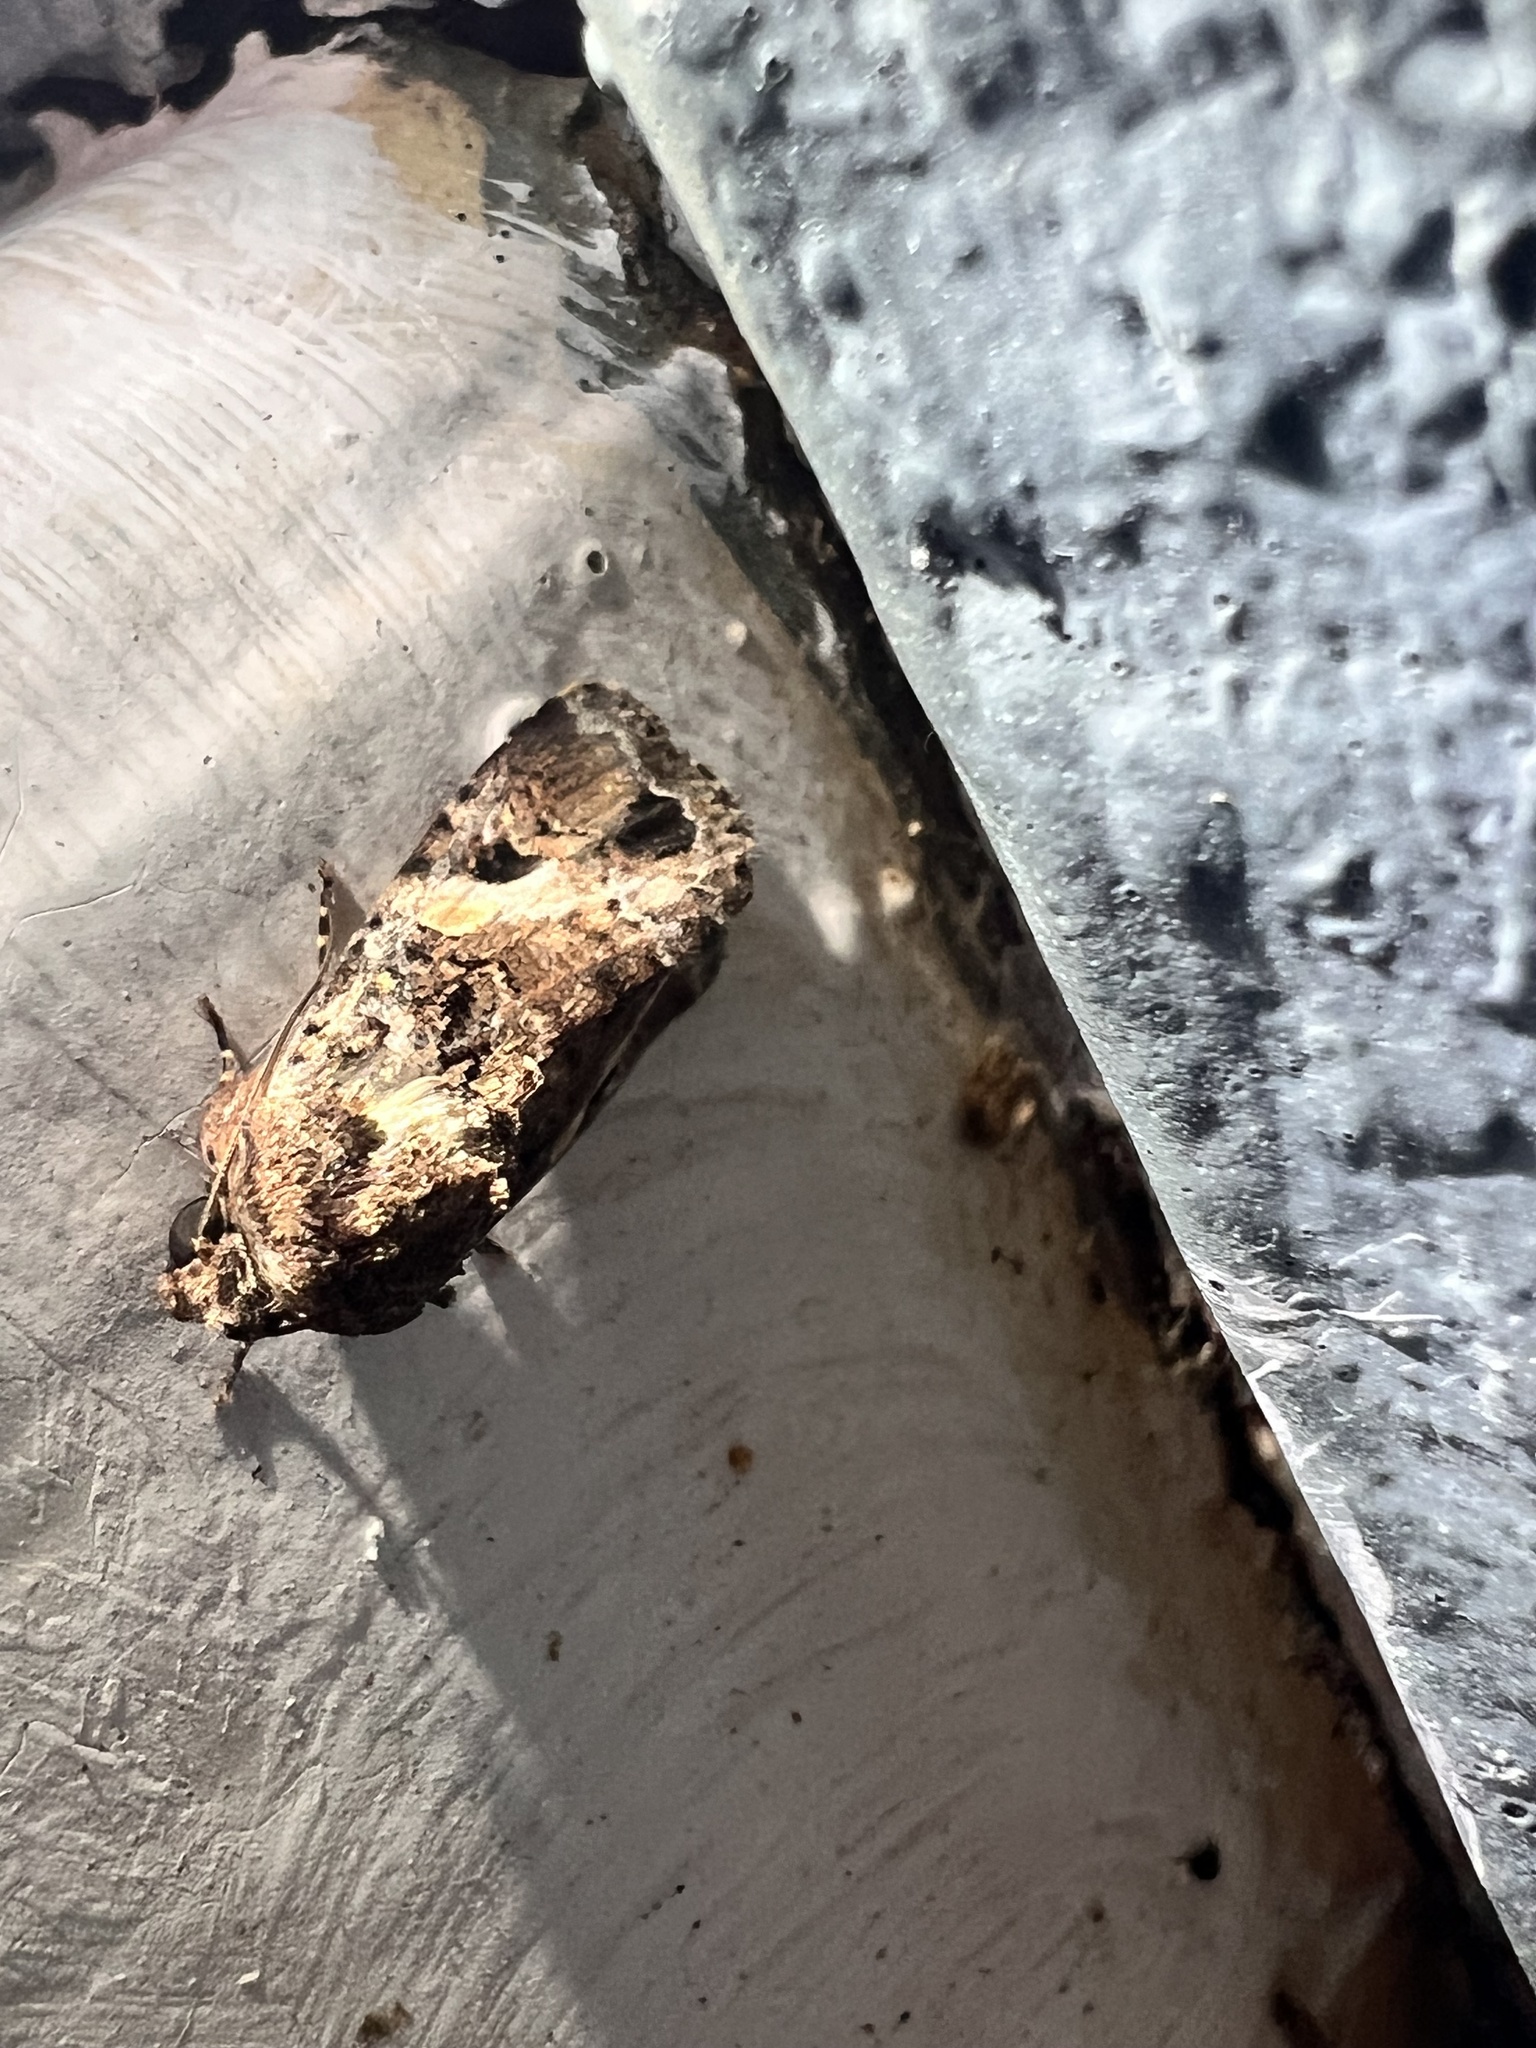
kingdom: Animalia
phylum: Arthropoda
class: Insecta
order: Lepidoptera
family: Noctuidae
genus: Spodoptera
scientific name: Spodoptera mauritia
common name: Lawn armyworm
